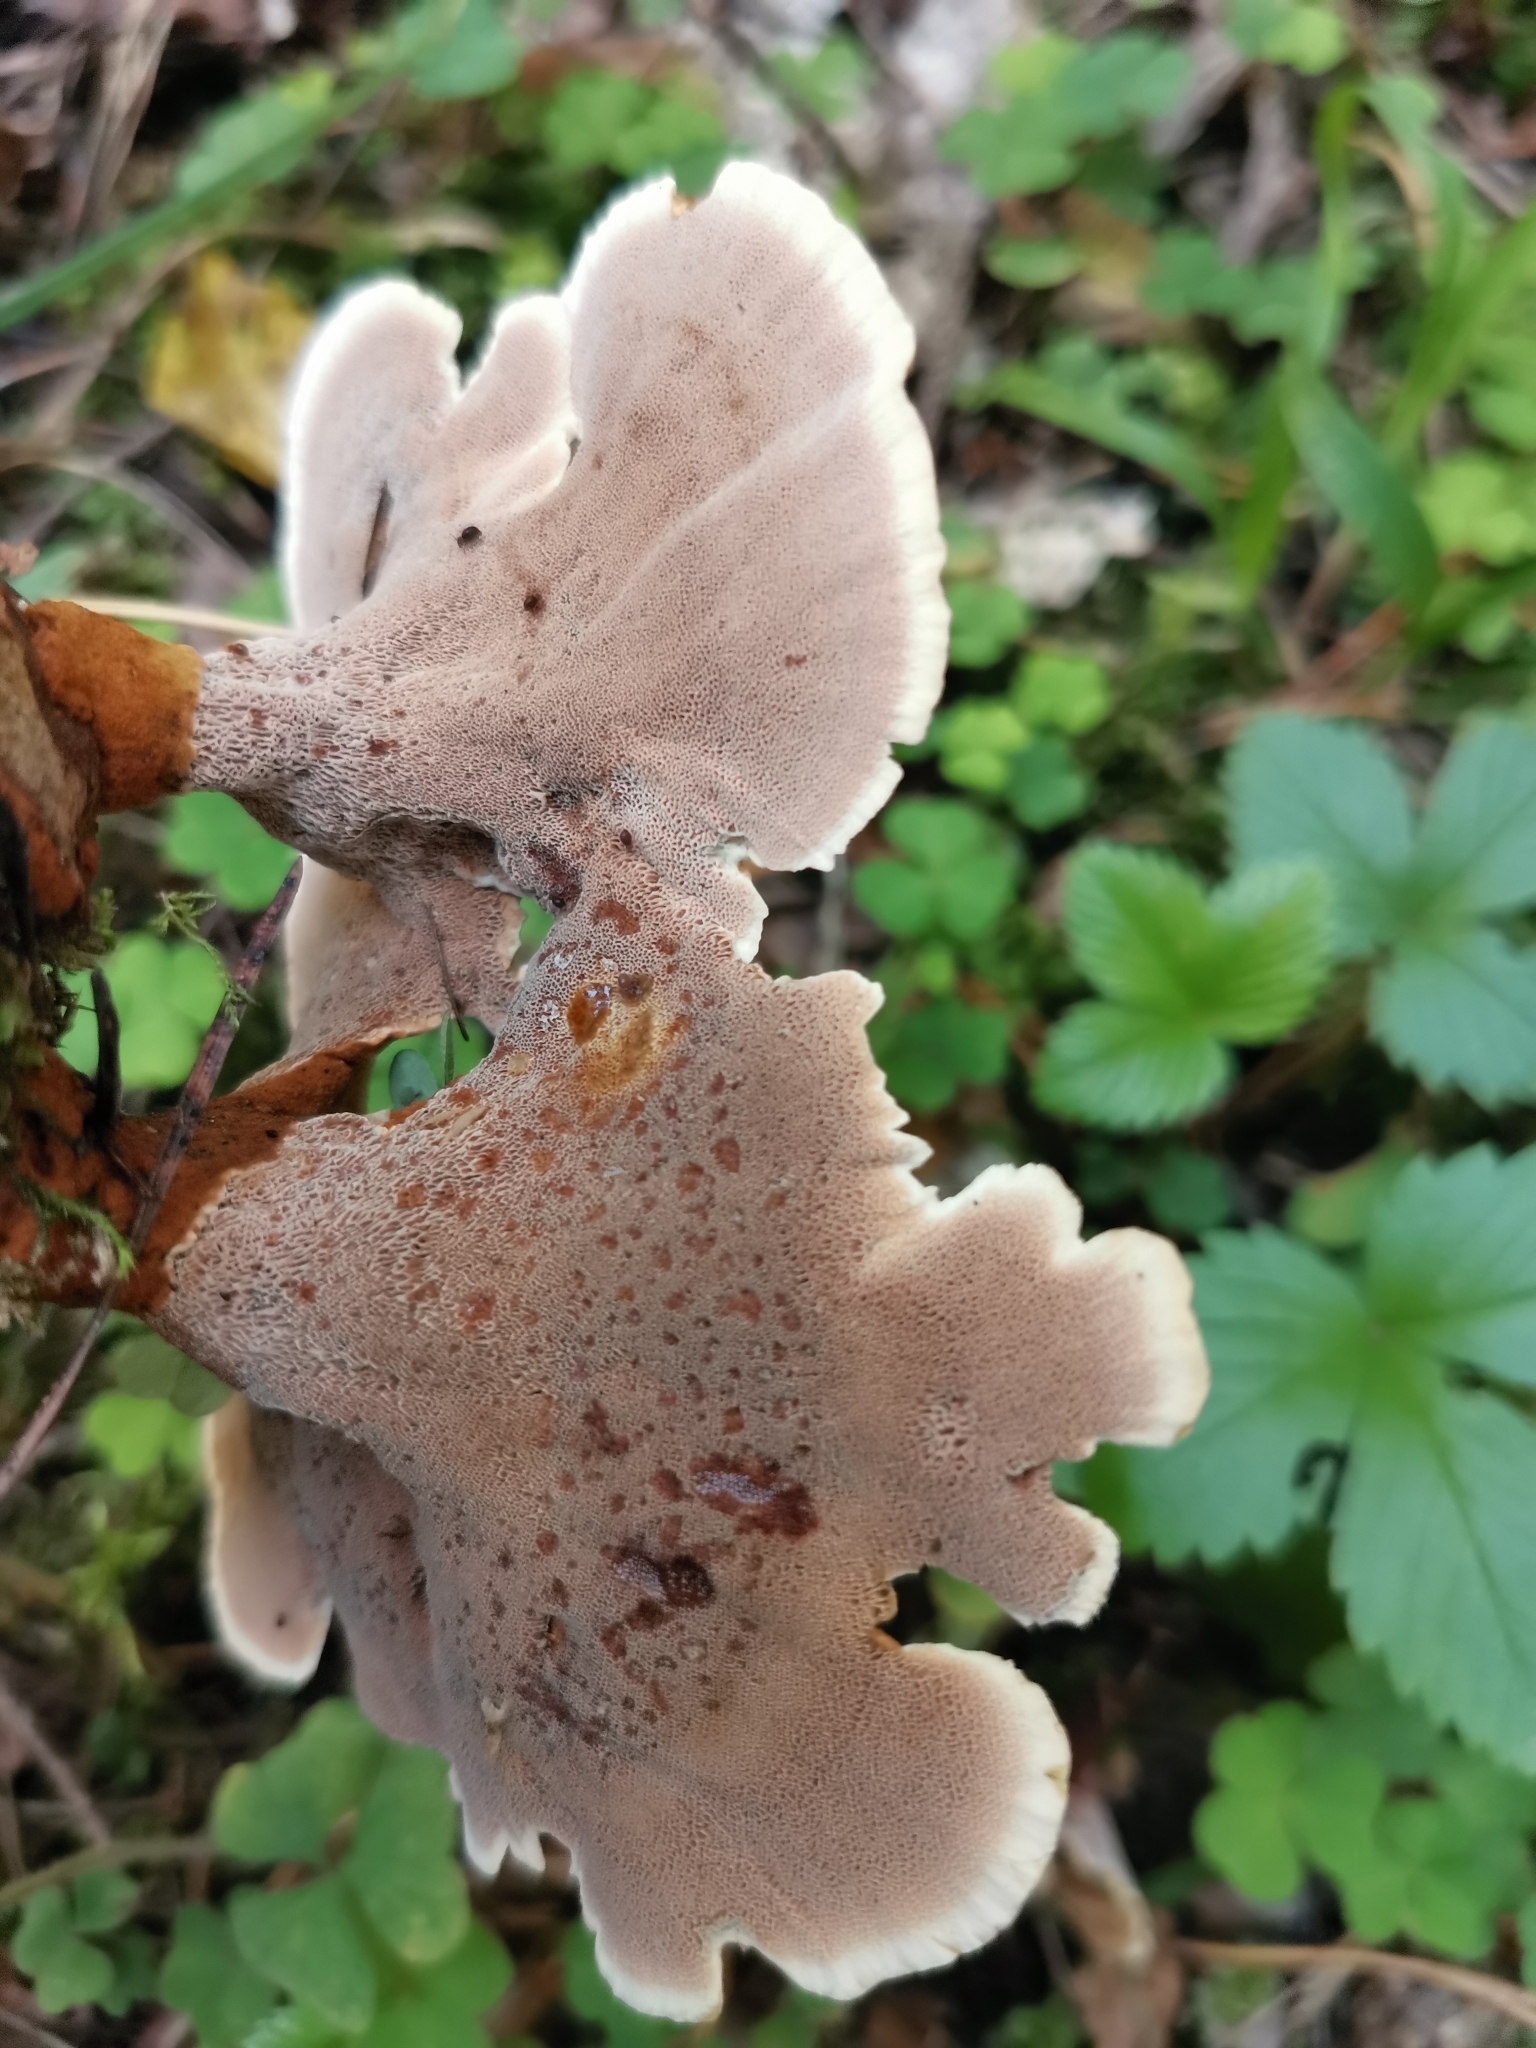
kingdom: Fungi
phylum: Basidiomycota
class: Agaricomycetes
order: Hymenochaetales
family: Hymenochaetaceae
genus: Onnia
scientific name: Onnia tomentosa
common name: Velvet rosette
